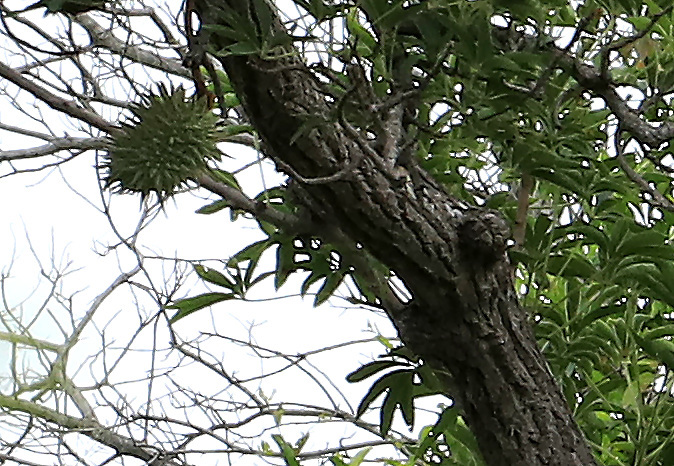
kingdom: Plantae
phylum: Tracheophyta
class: Magnoliopsida
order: Malvales
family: Malvaceae
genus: Sterculia
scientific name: Sterculia murex
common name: Lowveld star-chestnut
